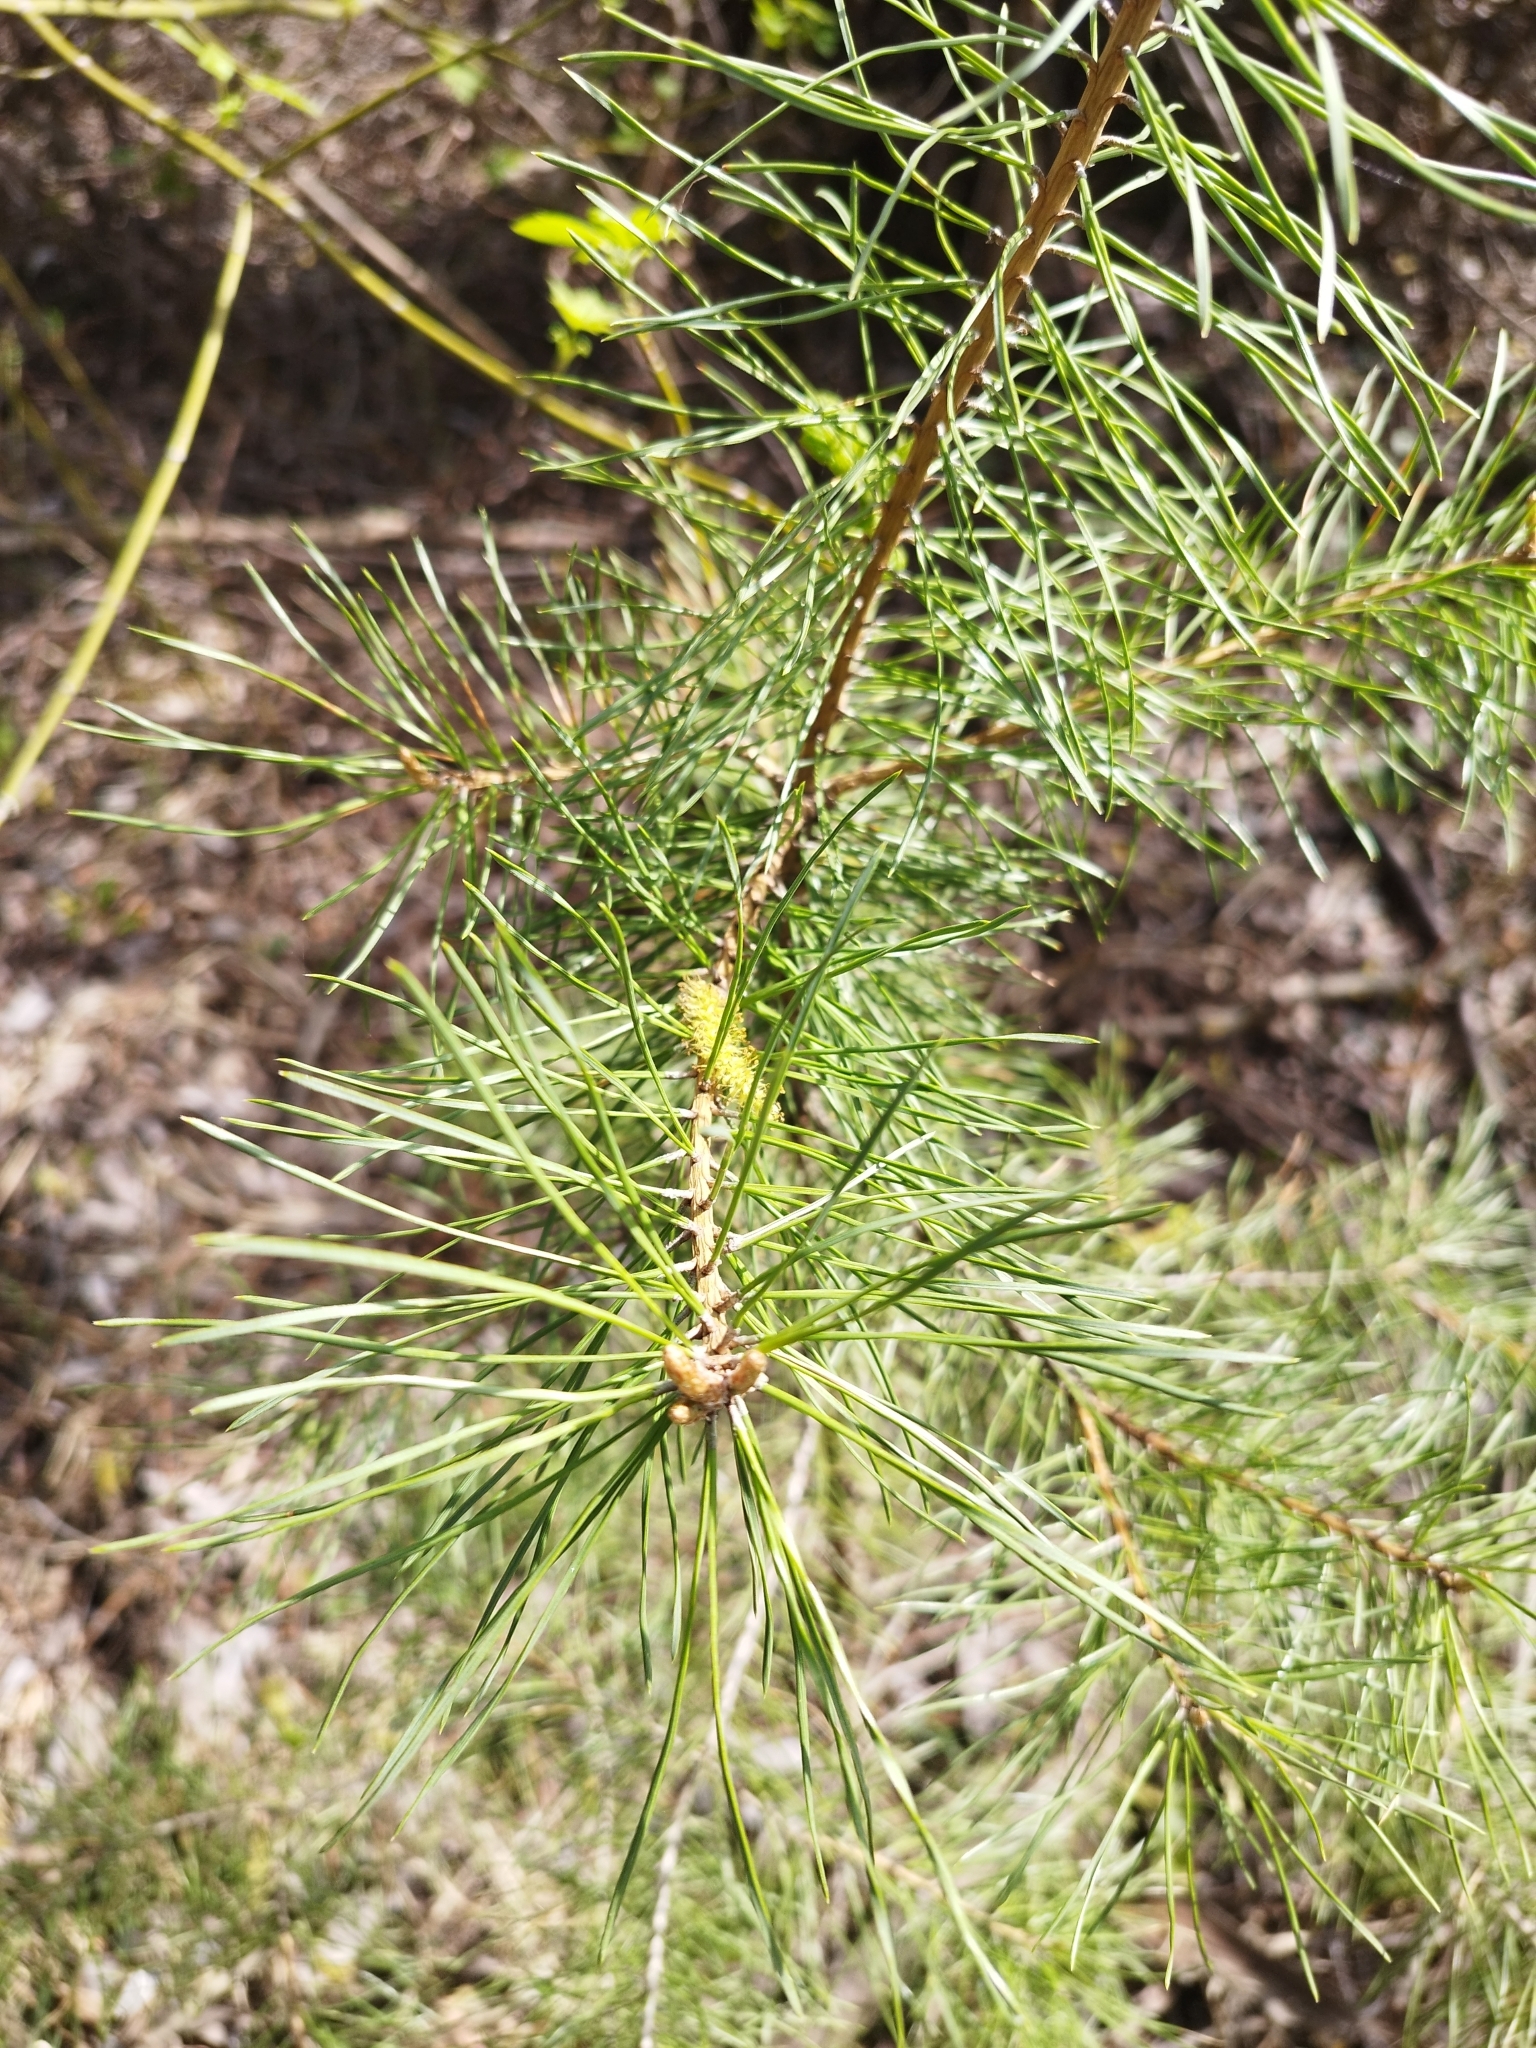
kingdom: Plantae
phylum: Tracheophyta
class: Pinopsida
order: Pinales
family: Pinaceae
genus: Pinus
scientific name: Pinus sylvestris
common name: Scots pine
